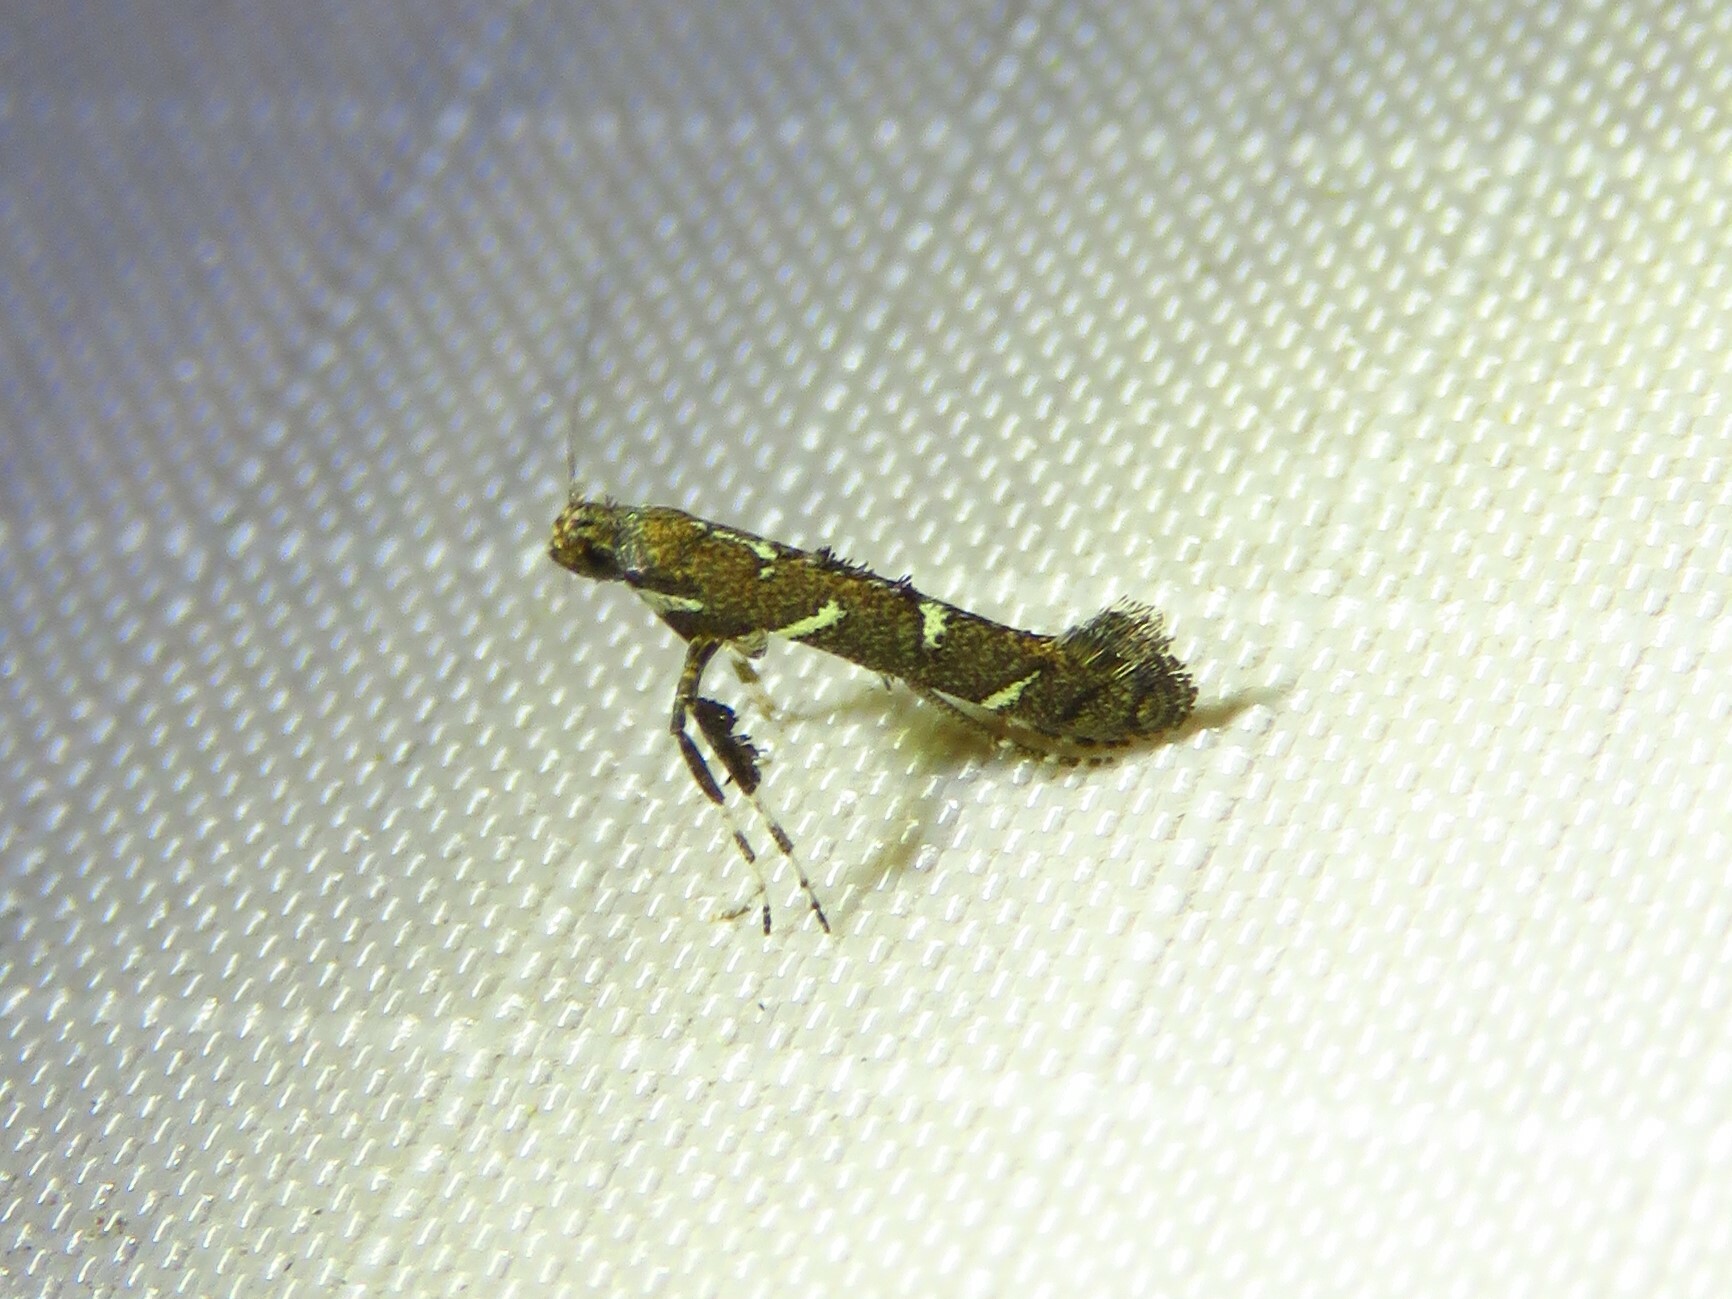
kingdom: Animalia
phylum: Arthropoda
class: Insecta
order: Lepidoptera
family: Gracillariidae
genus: Caloptilia
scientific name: Caloptilia triadicae
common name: Tallow leaf roller
